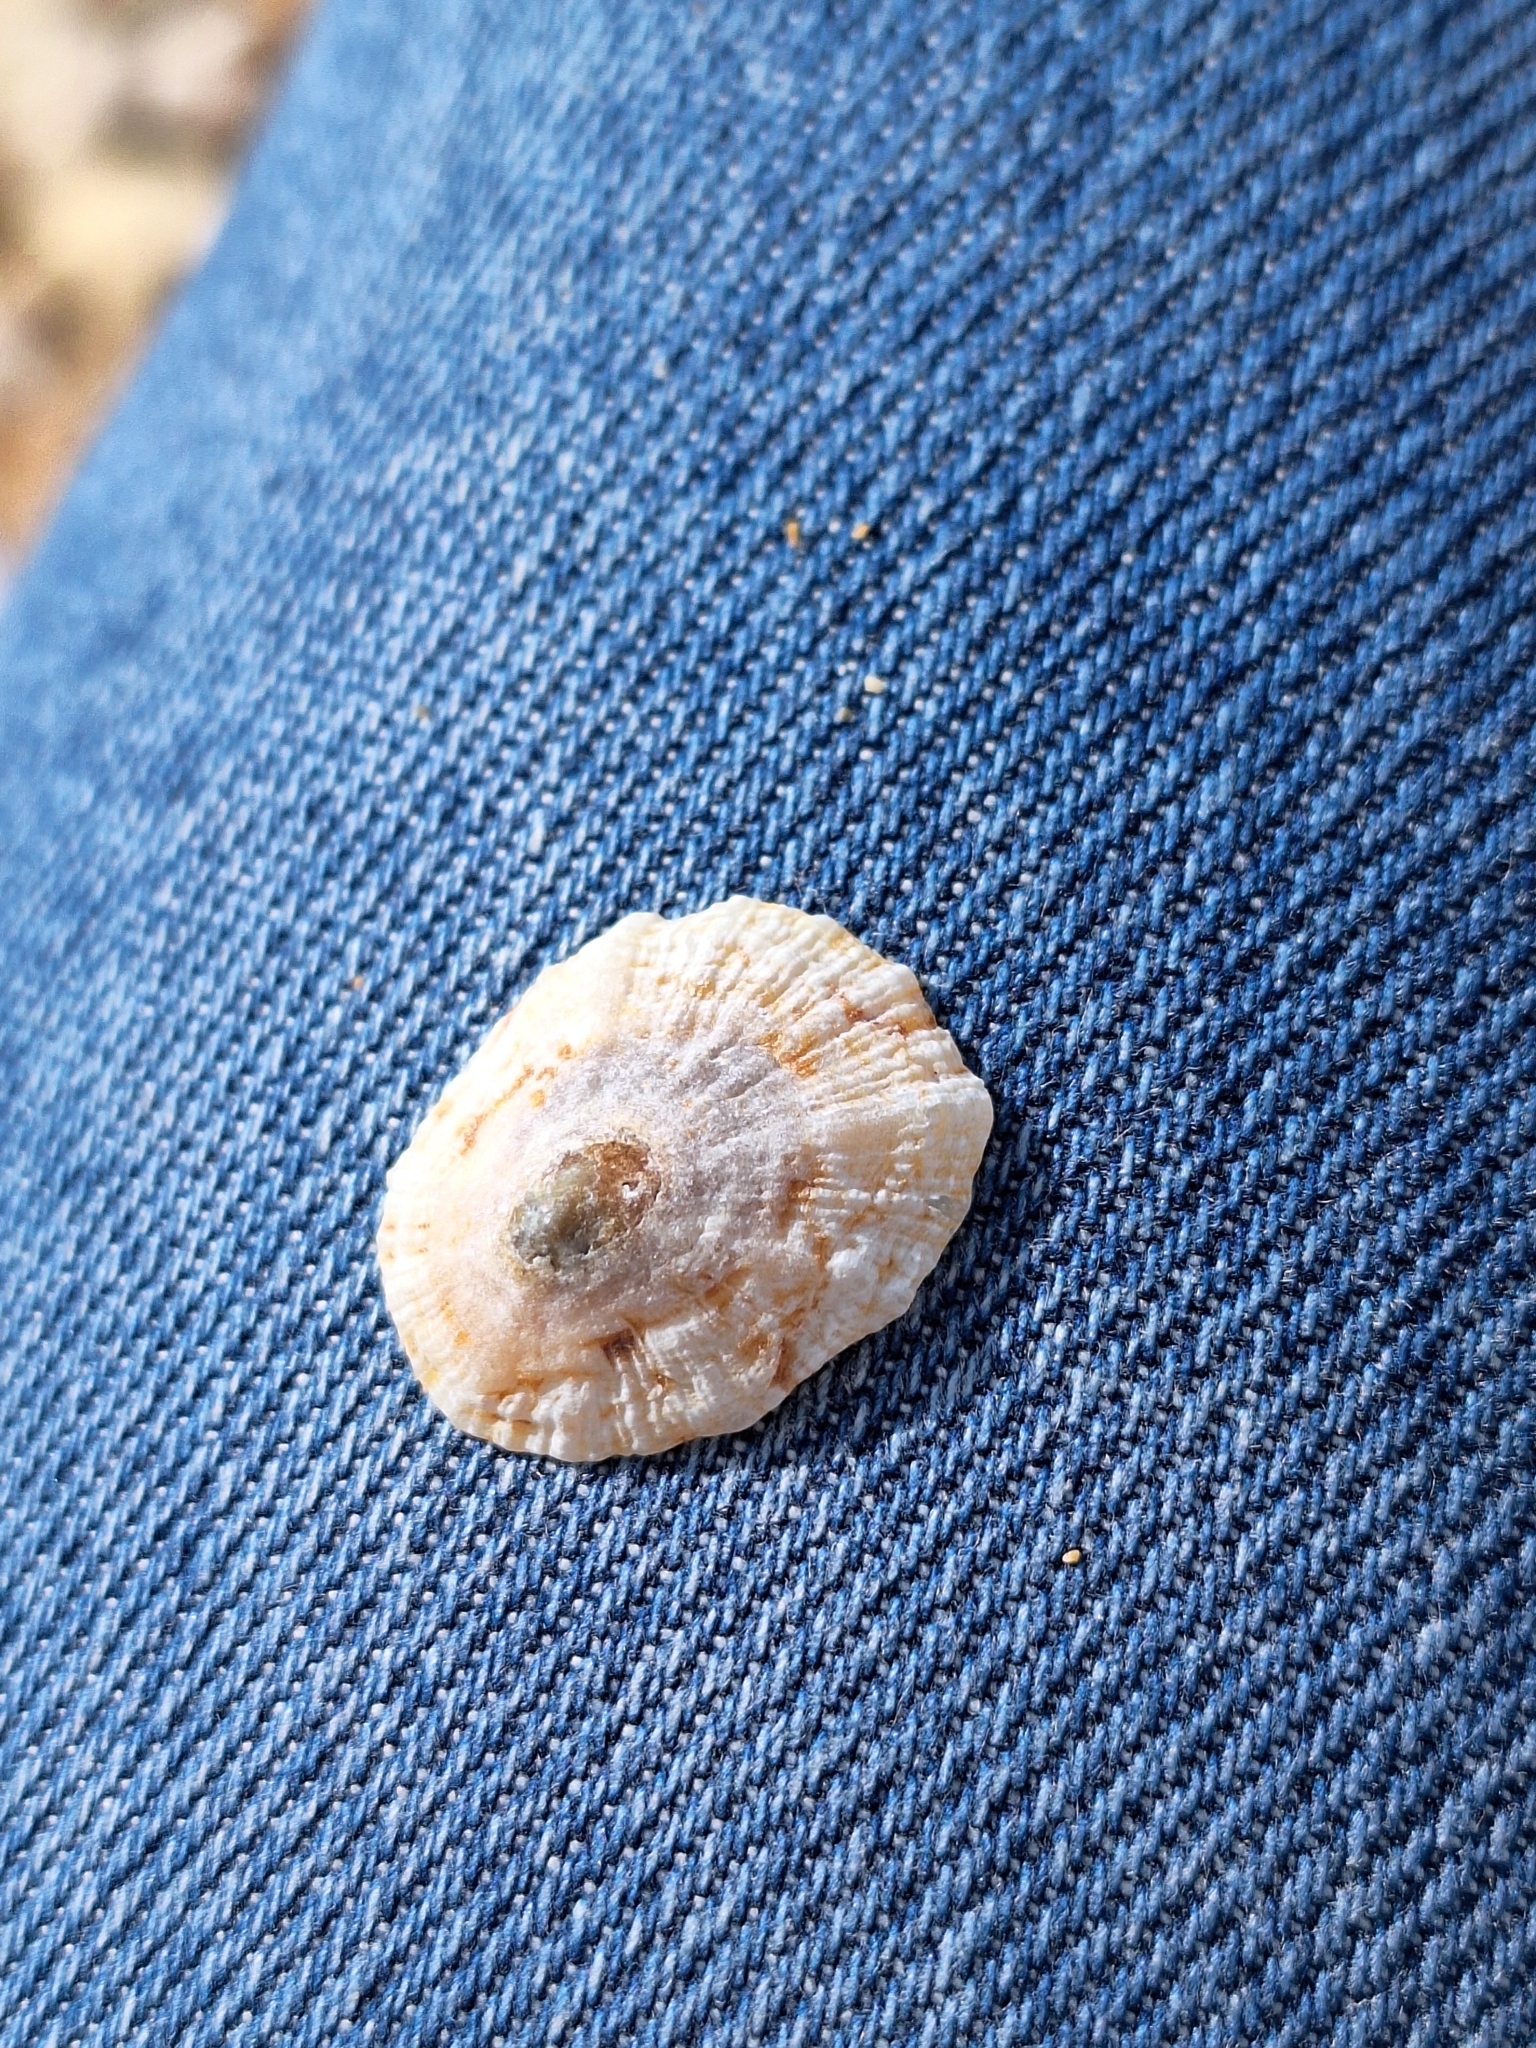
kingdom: Animalia
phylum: Mollusca
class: Gastropoda
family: Patellidae
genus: Patella
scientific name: Patella caerulea
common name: Mediterranean limpet
